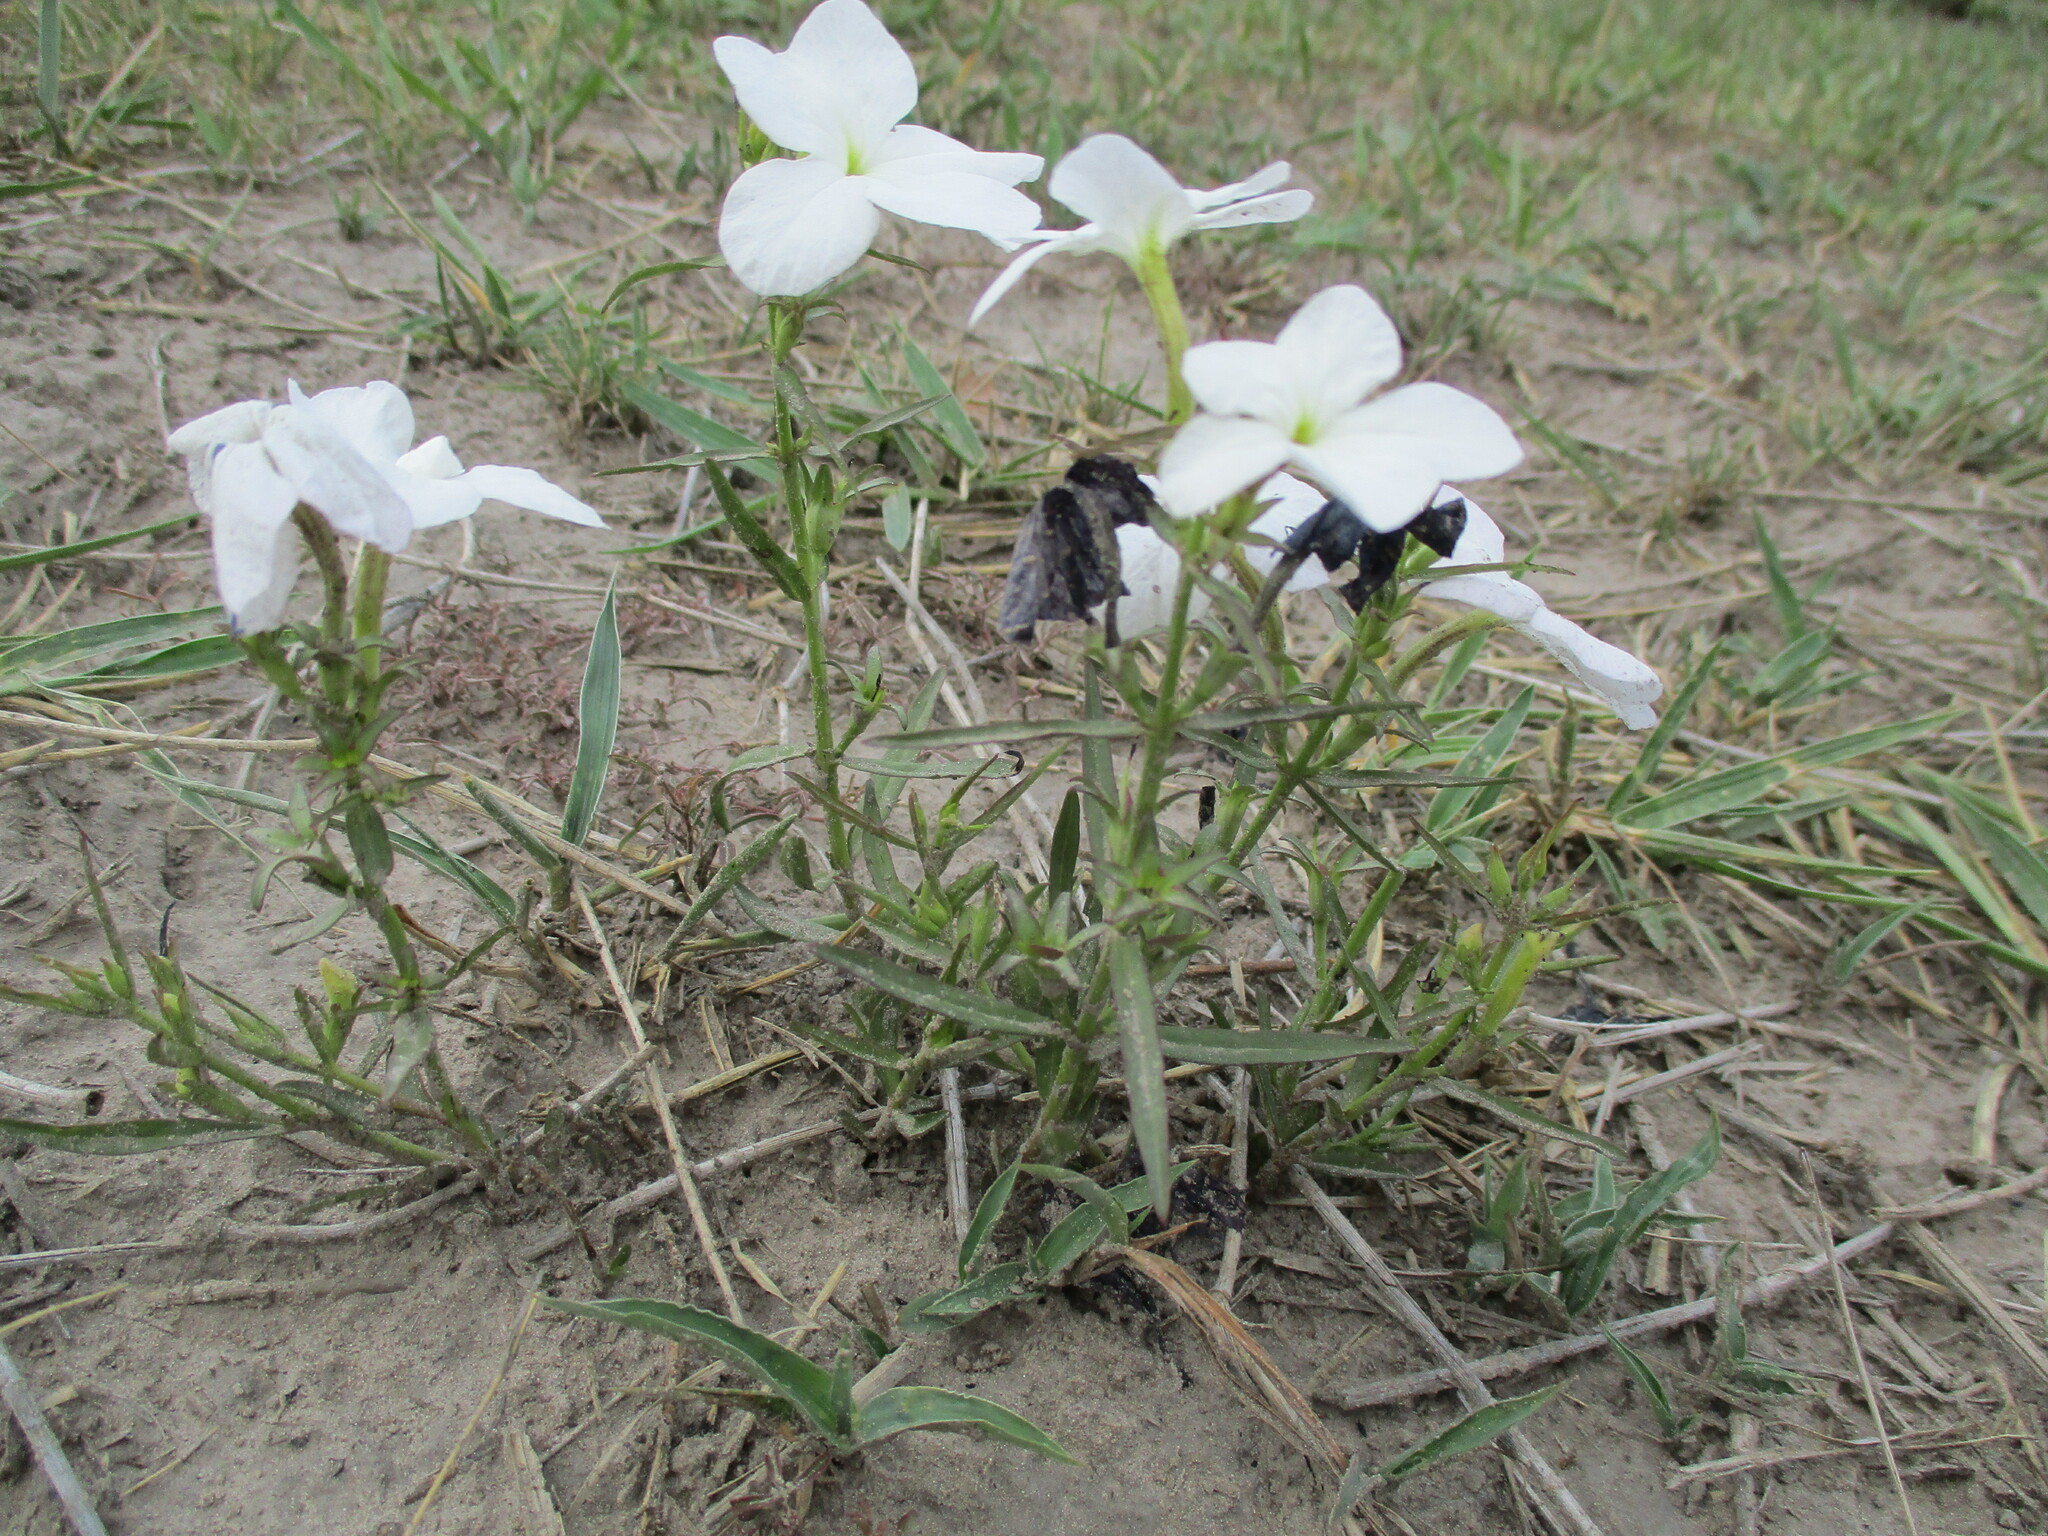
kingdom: Plantae
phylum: Tracheophyta
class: Magnoliopsida
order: Lamiales
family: Orobanchaceae
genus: Cycnium
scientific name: Cycnium tubulosum
